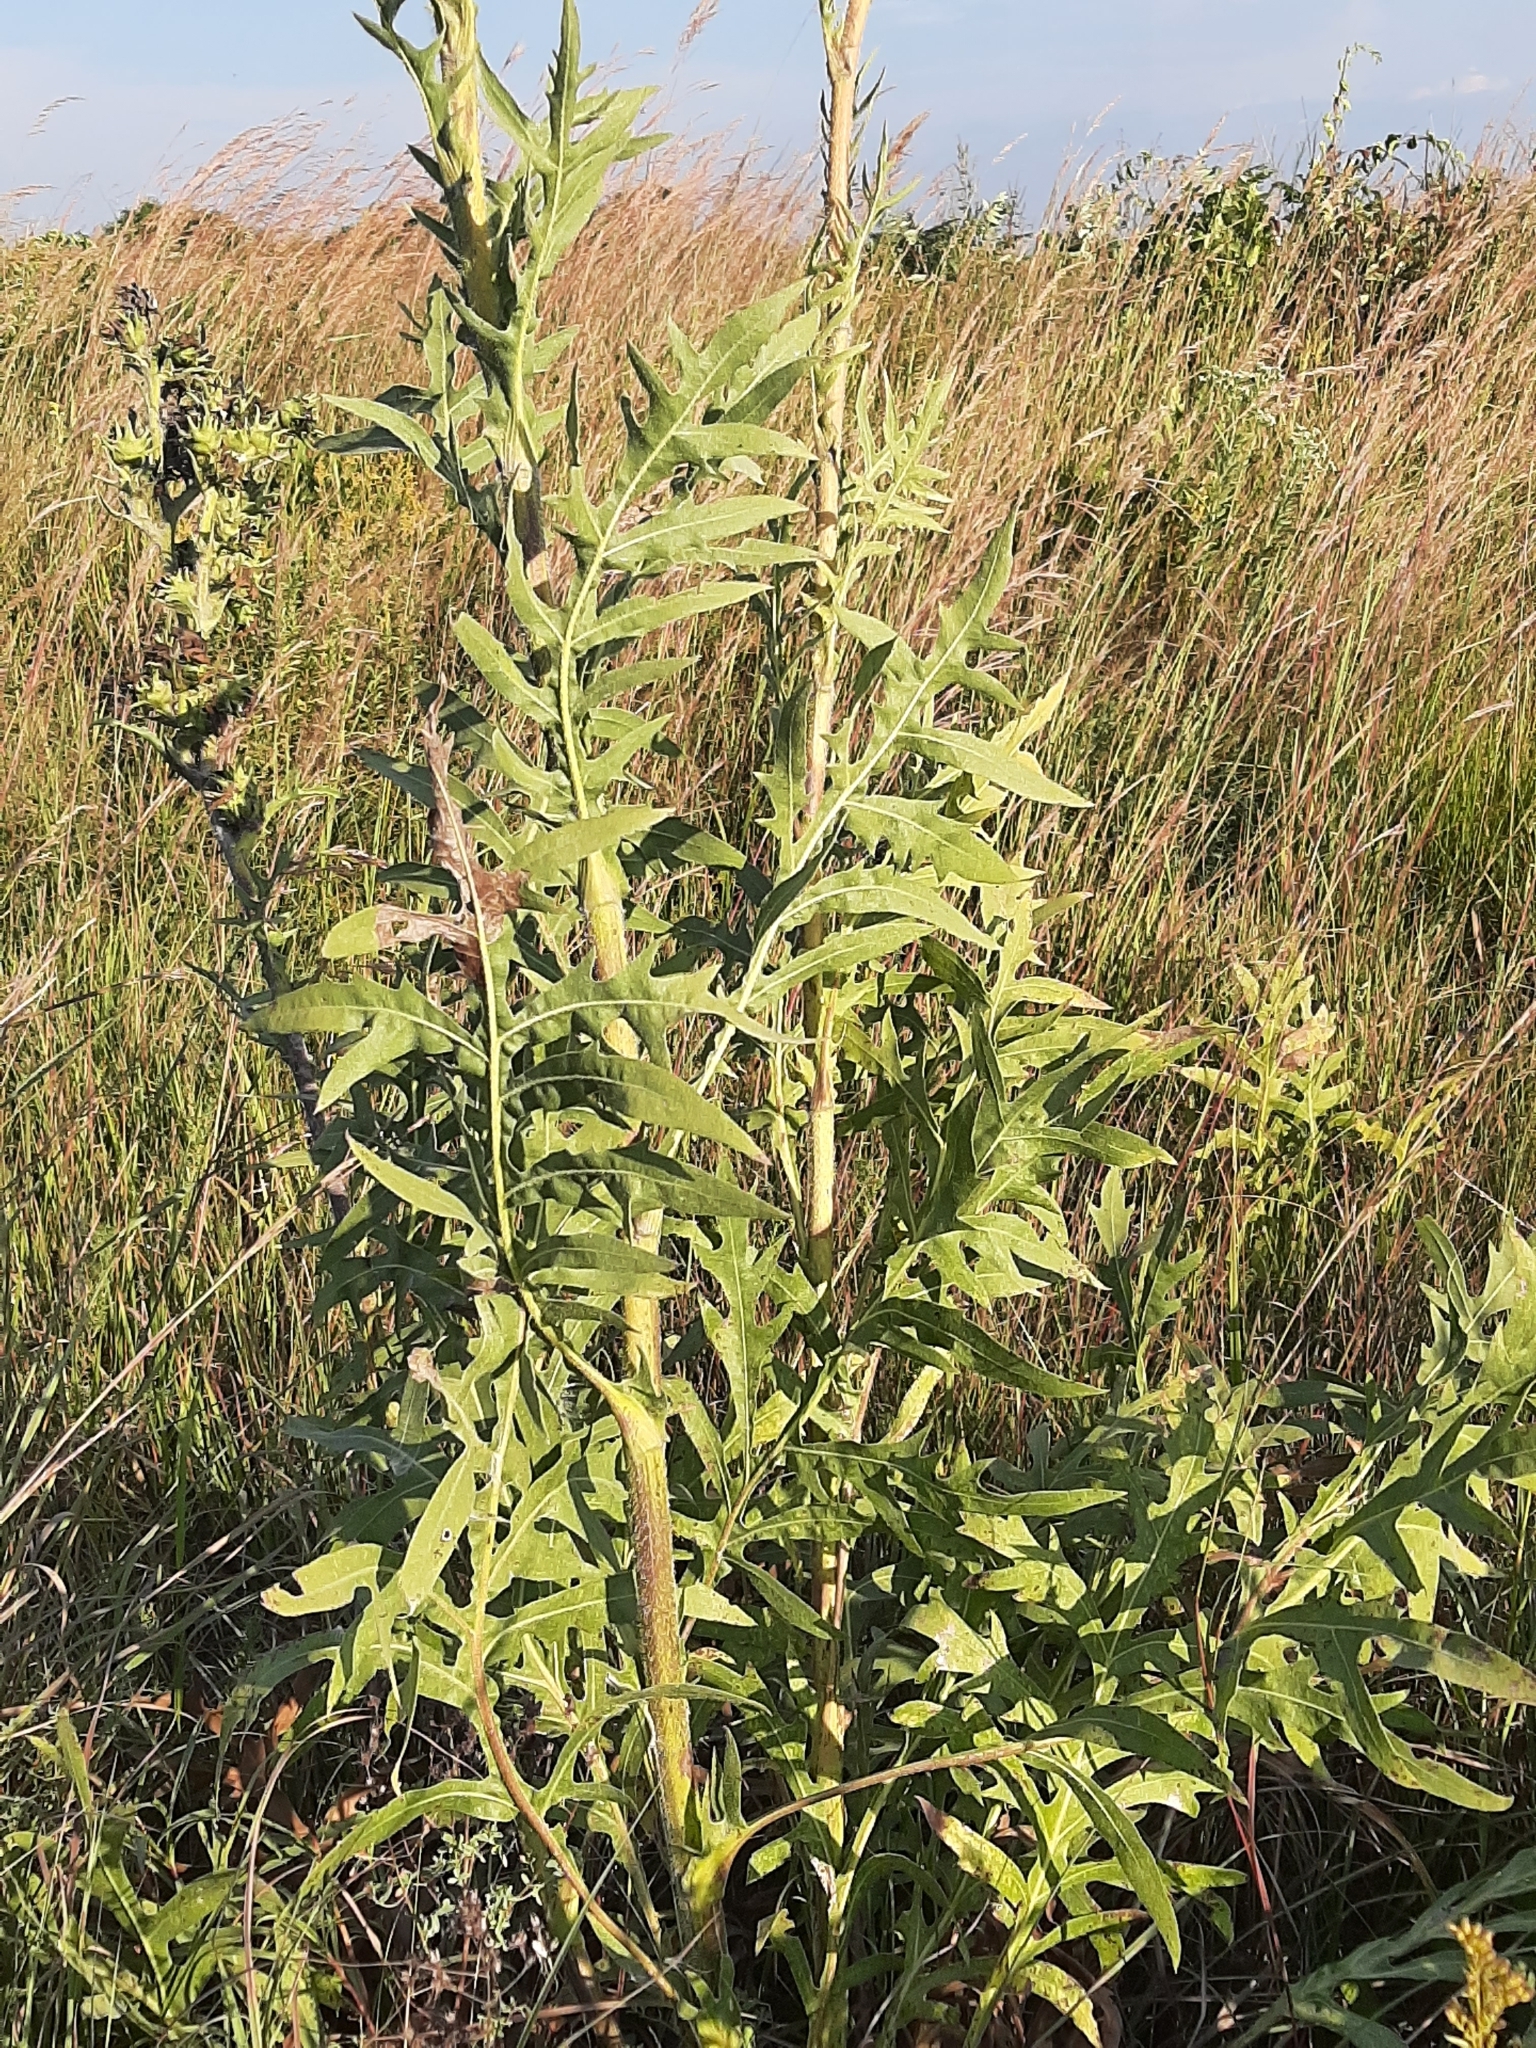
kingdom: Plantae
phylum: Tracheophyta
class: Magnoliopsida
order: Asterales
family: Asteraceae
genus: Silphium
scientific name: Silphium laciniatum
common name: Polarplant
